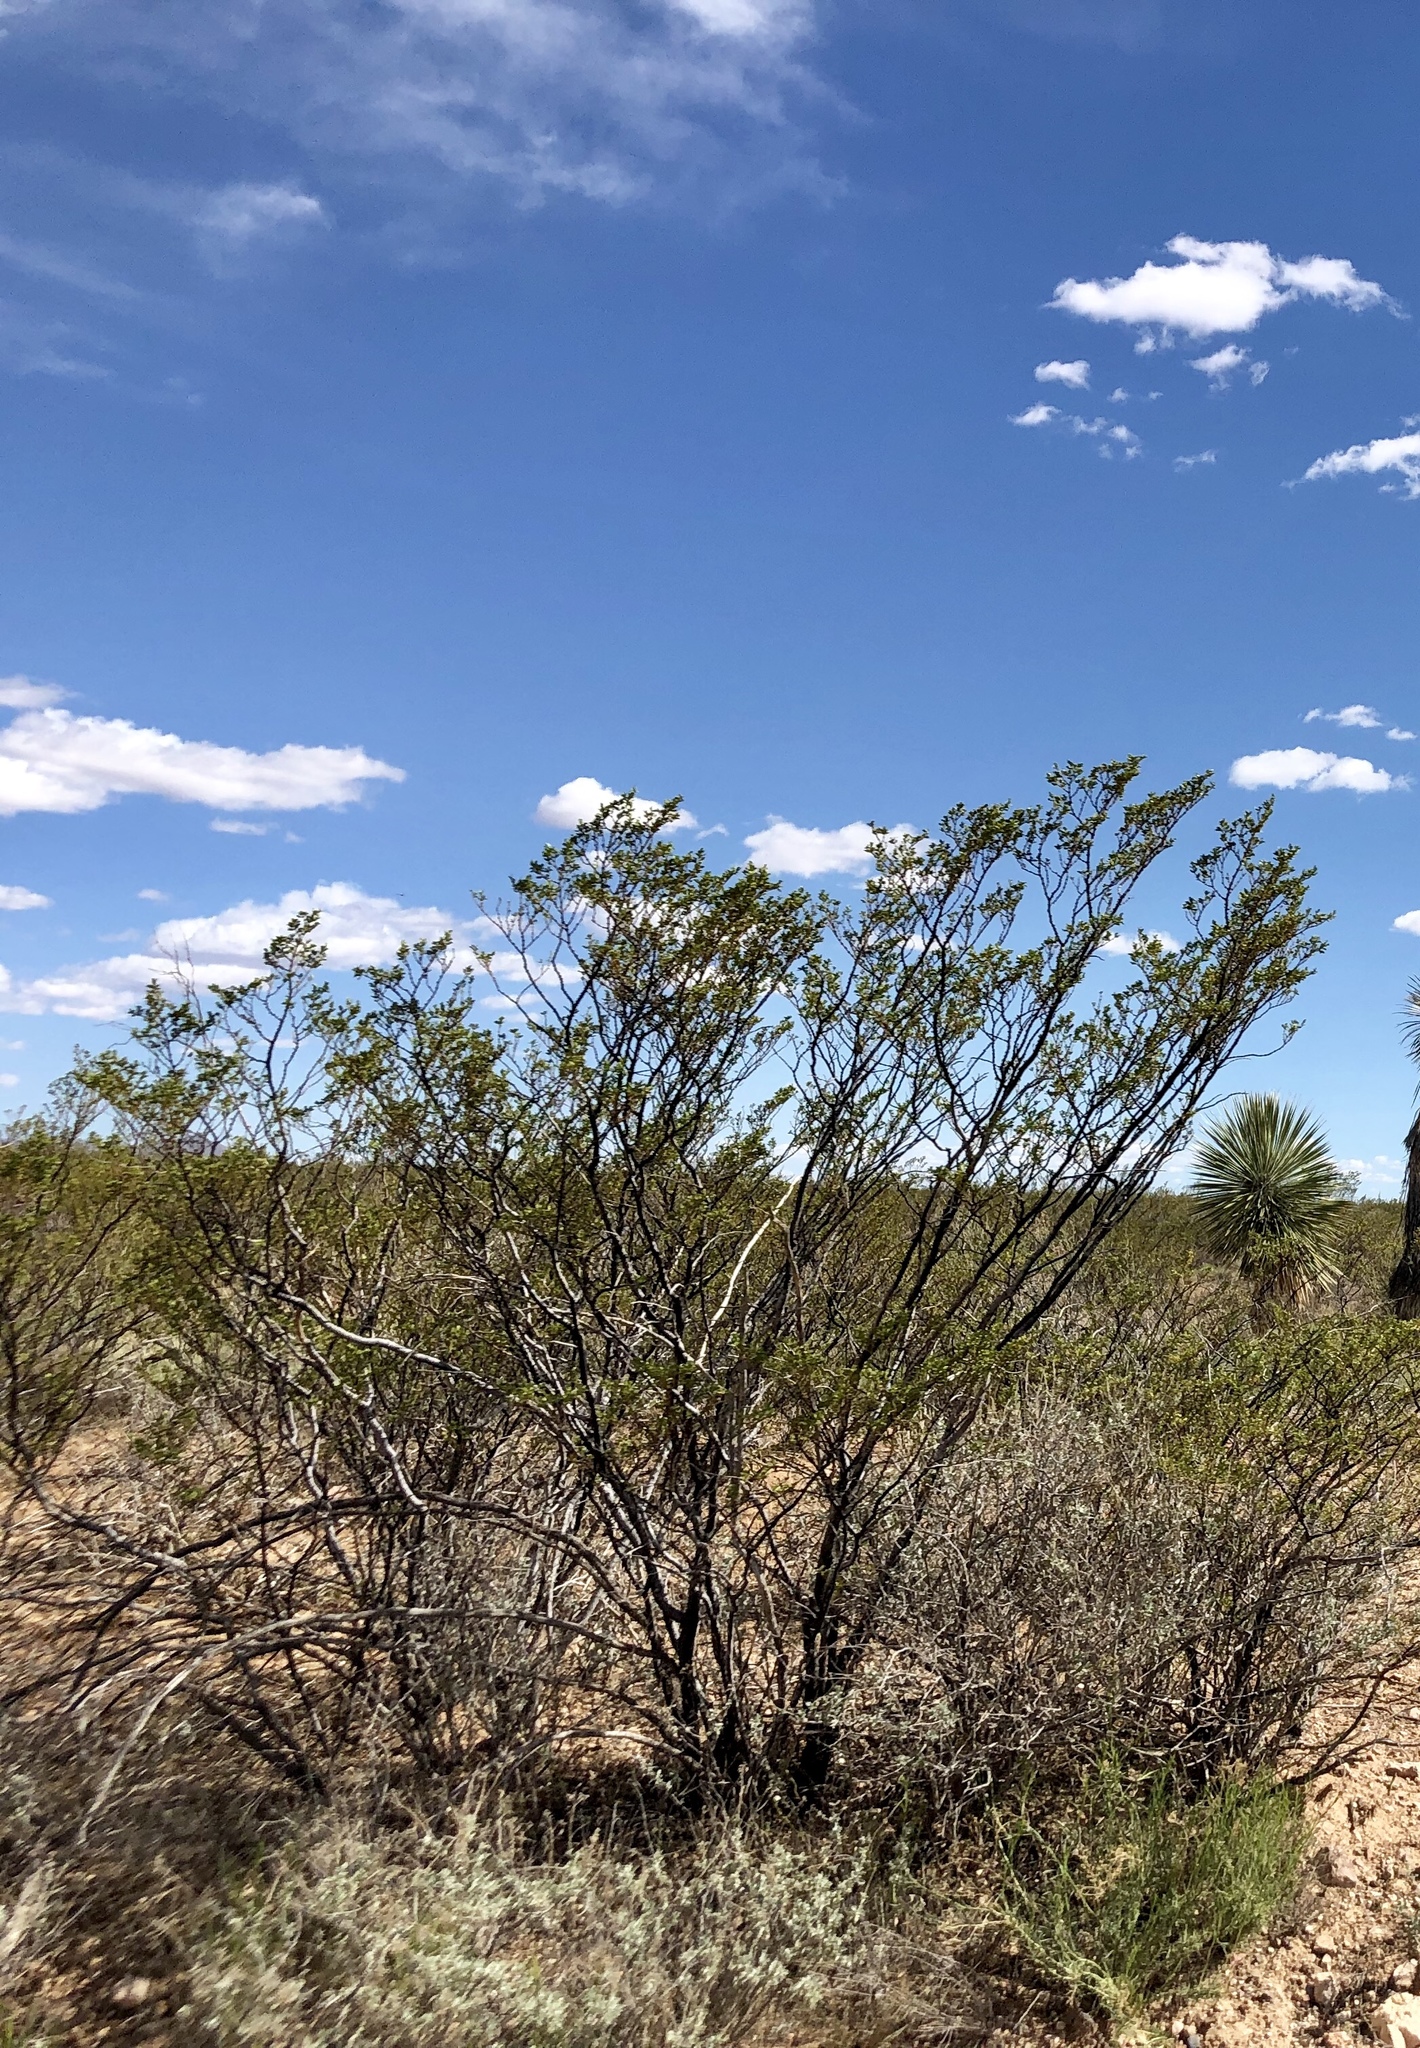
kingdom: Plantae
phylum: Tracheophyta
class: Magnoliopsida
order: Zygophyllales
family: Zygophyllaceae
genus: Larrea
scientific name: Larrea tridentata
